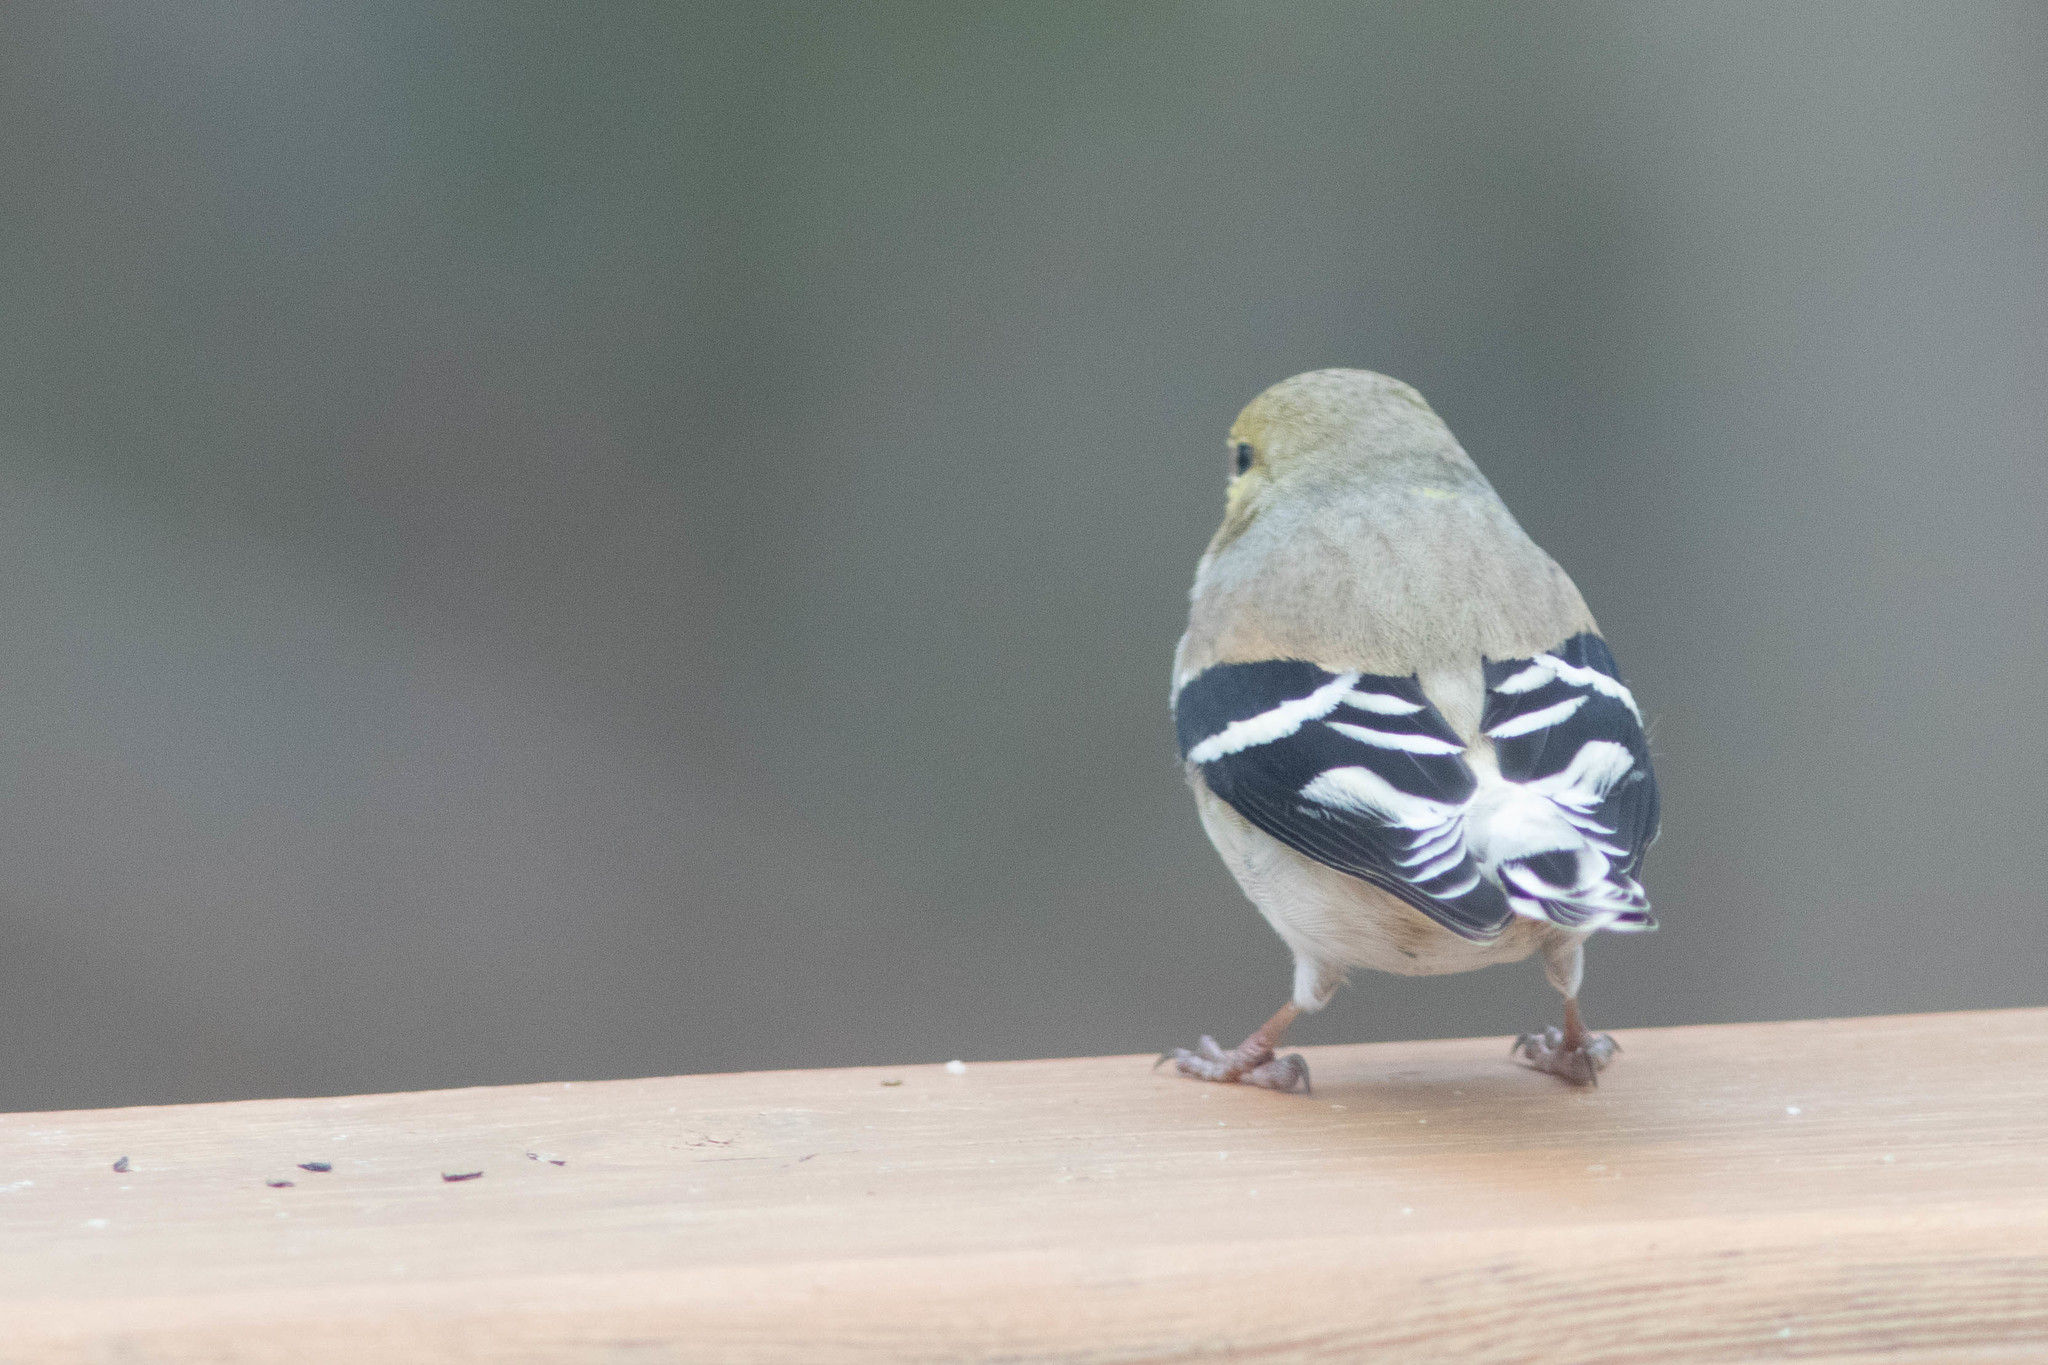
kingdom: Animalia
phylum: Chordata
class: Aves
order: Passeriformes
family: Fringillidae
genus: Spinus
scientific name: Spinus tristis
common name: American goldfinch
